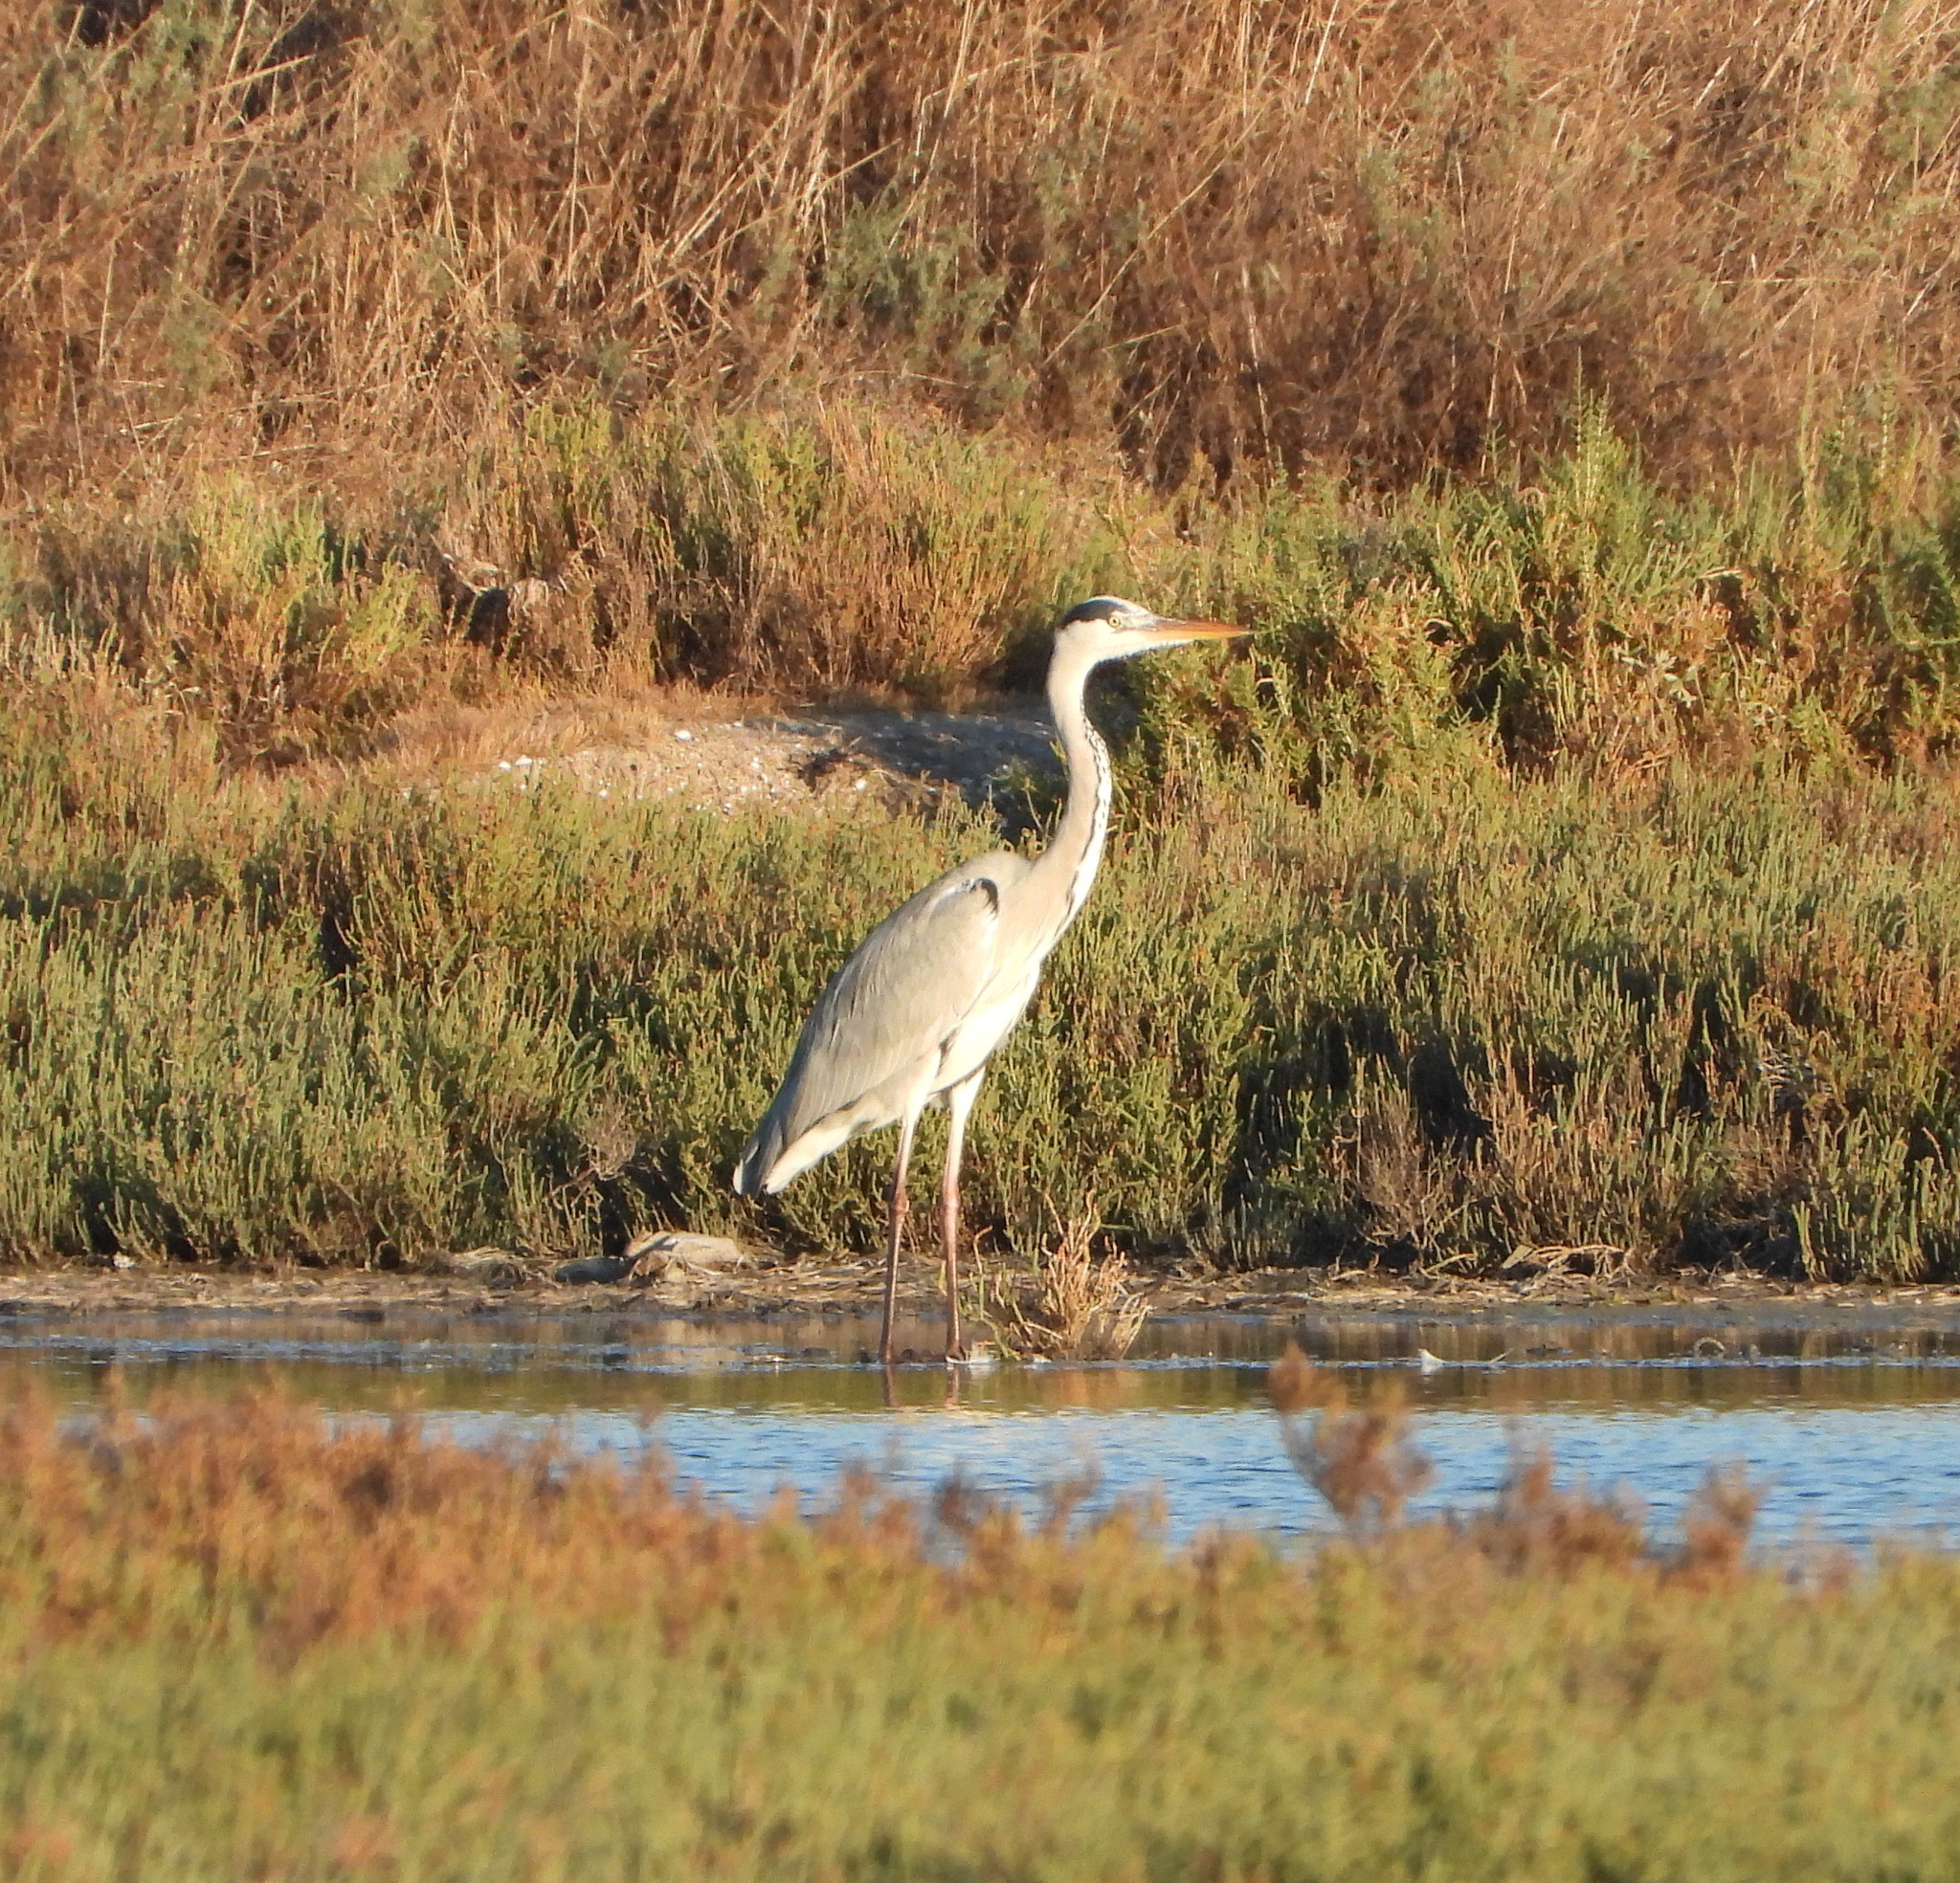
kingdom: Animalia
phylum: Chordata
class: Aves
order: Pelecaniformes
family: Ardeidae
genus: Ardea
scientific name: Ardea cinerea
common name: Grey heron
